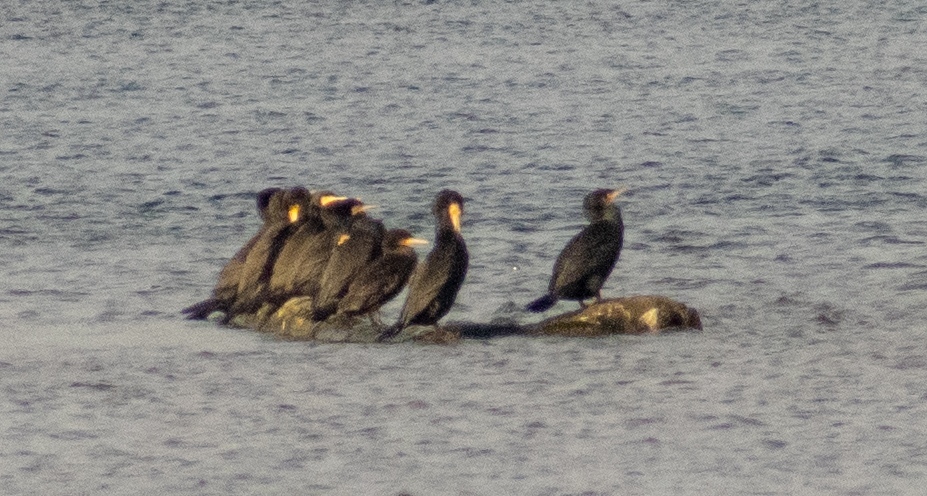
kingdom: Animalia
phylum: Chordata
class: Aves
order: Suliformes
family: Phalacrocoracidae
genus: Phalacrocorax
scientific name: Phalacrocorax carbo
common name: Great cormorant
